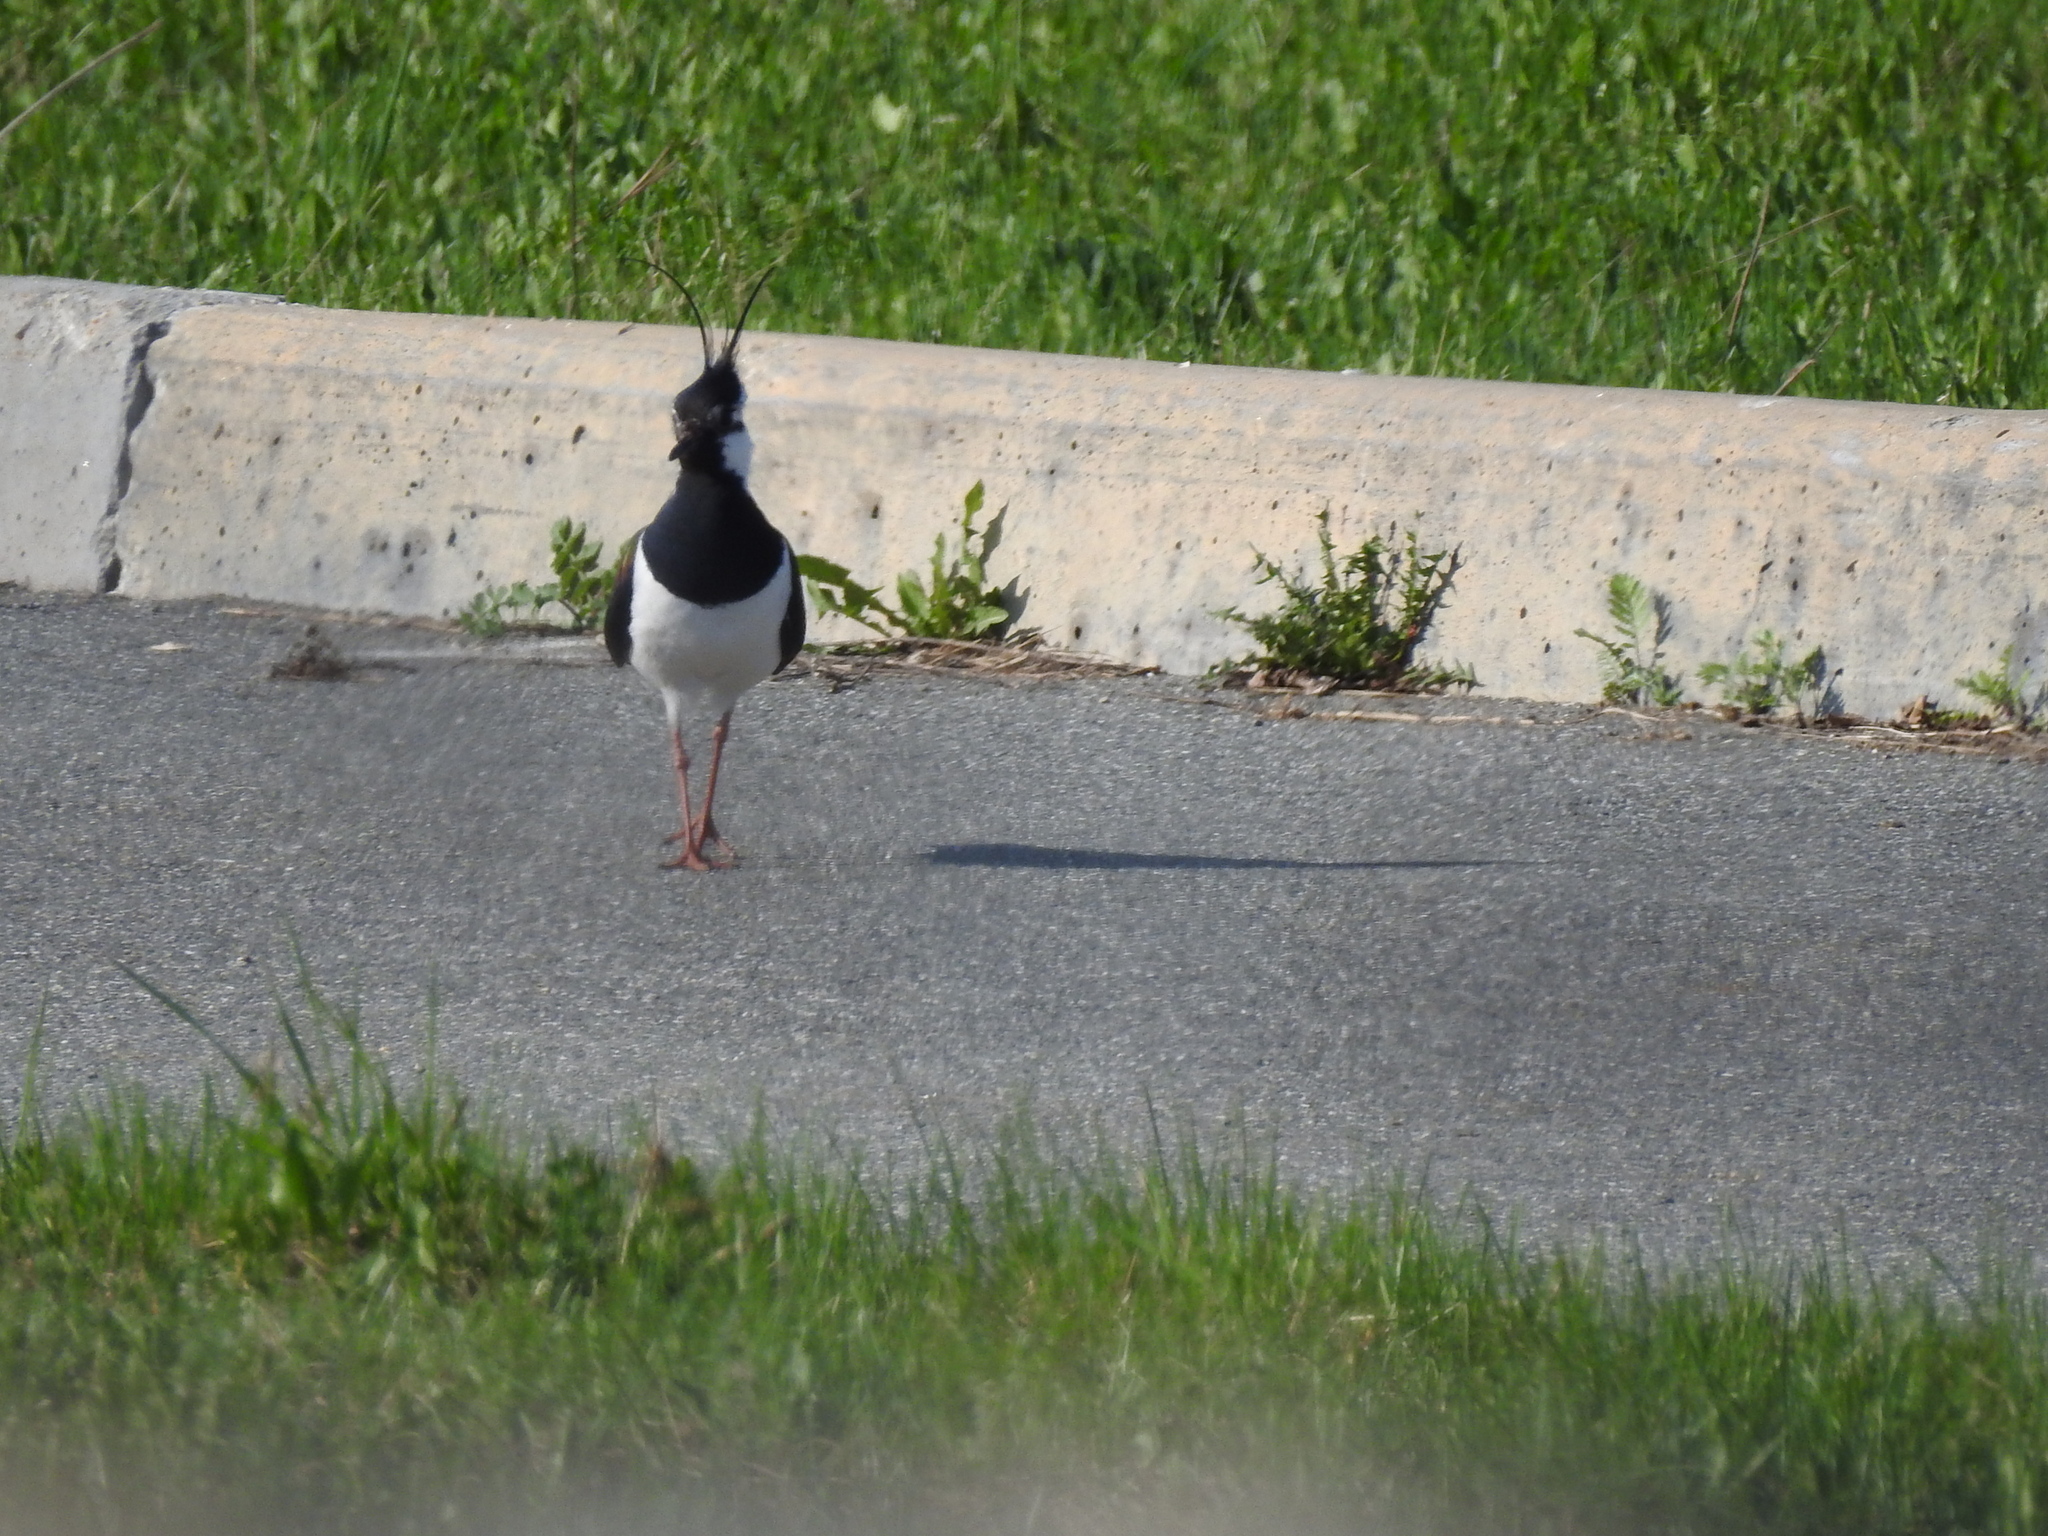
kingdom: Animalia
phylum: Chordata
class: Aves
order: Charadriiformes
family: Charadriidae
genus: Vanellus
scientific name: Vanellus vanellus
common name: Northern lapwing
